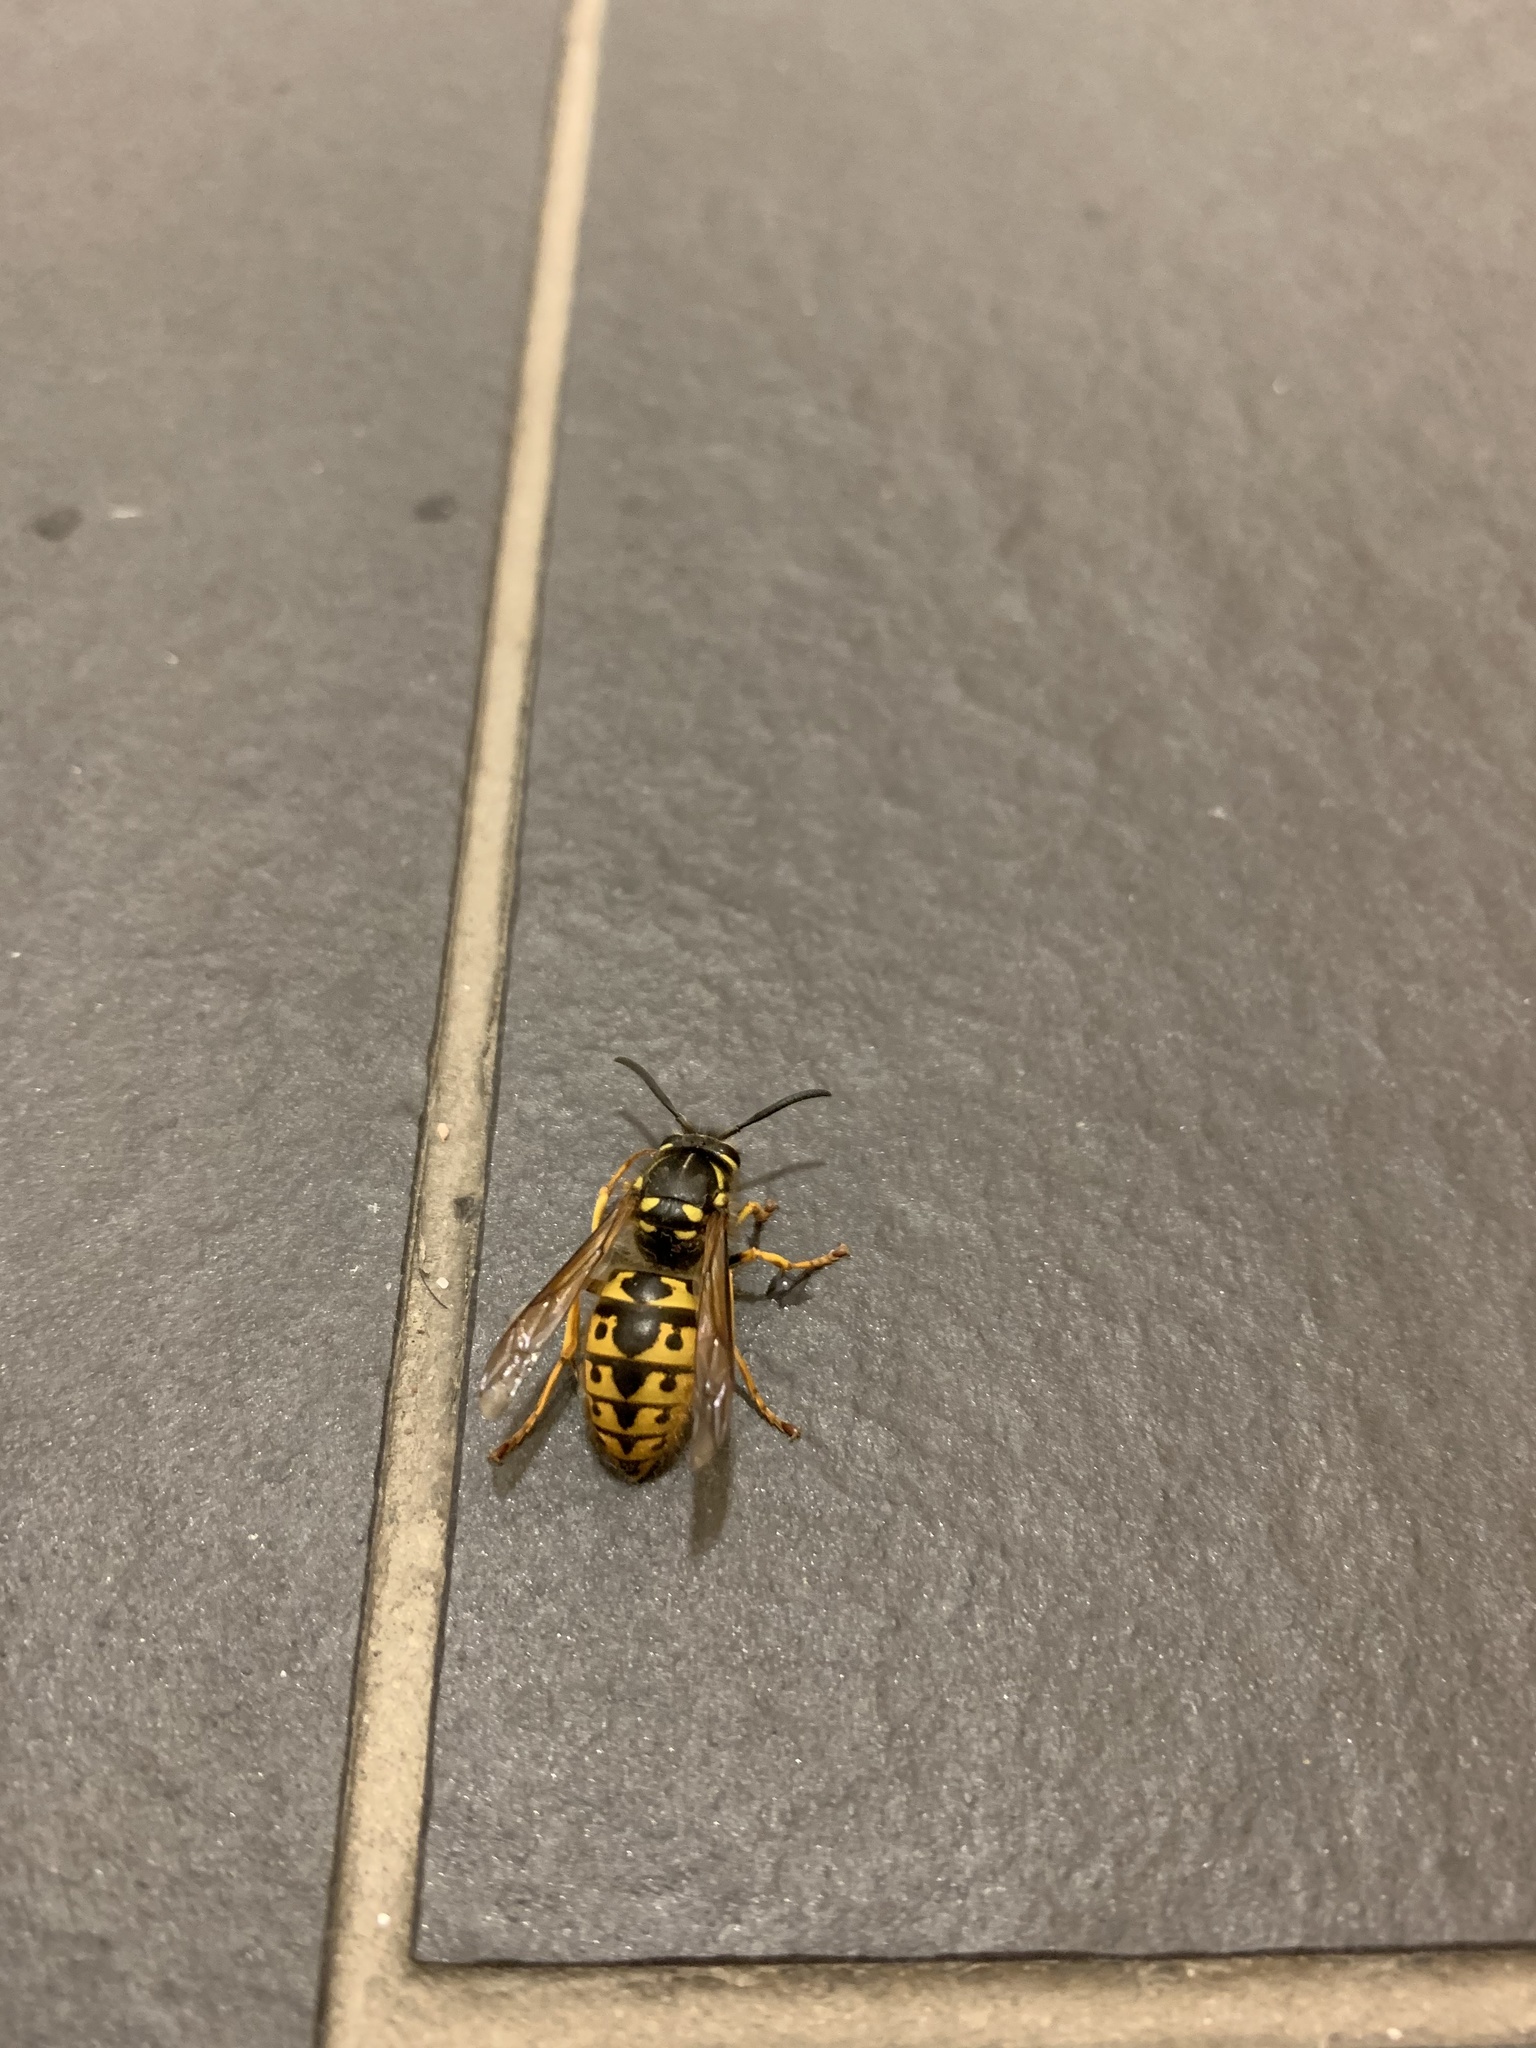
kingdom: Animalia
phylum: Arthropoda
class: Insecta
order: Hymenoptera
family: Vespidae
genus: Vespula
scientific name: Vespula germanica
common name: German wasp
